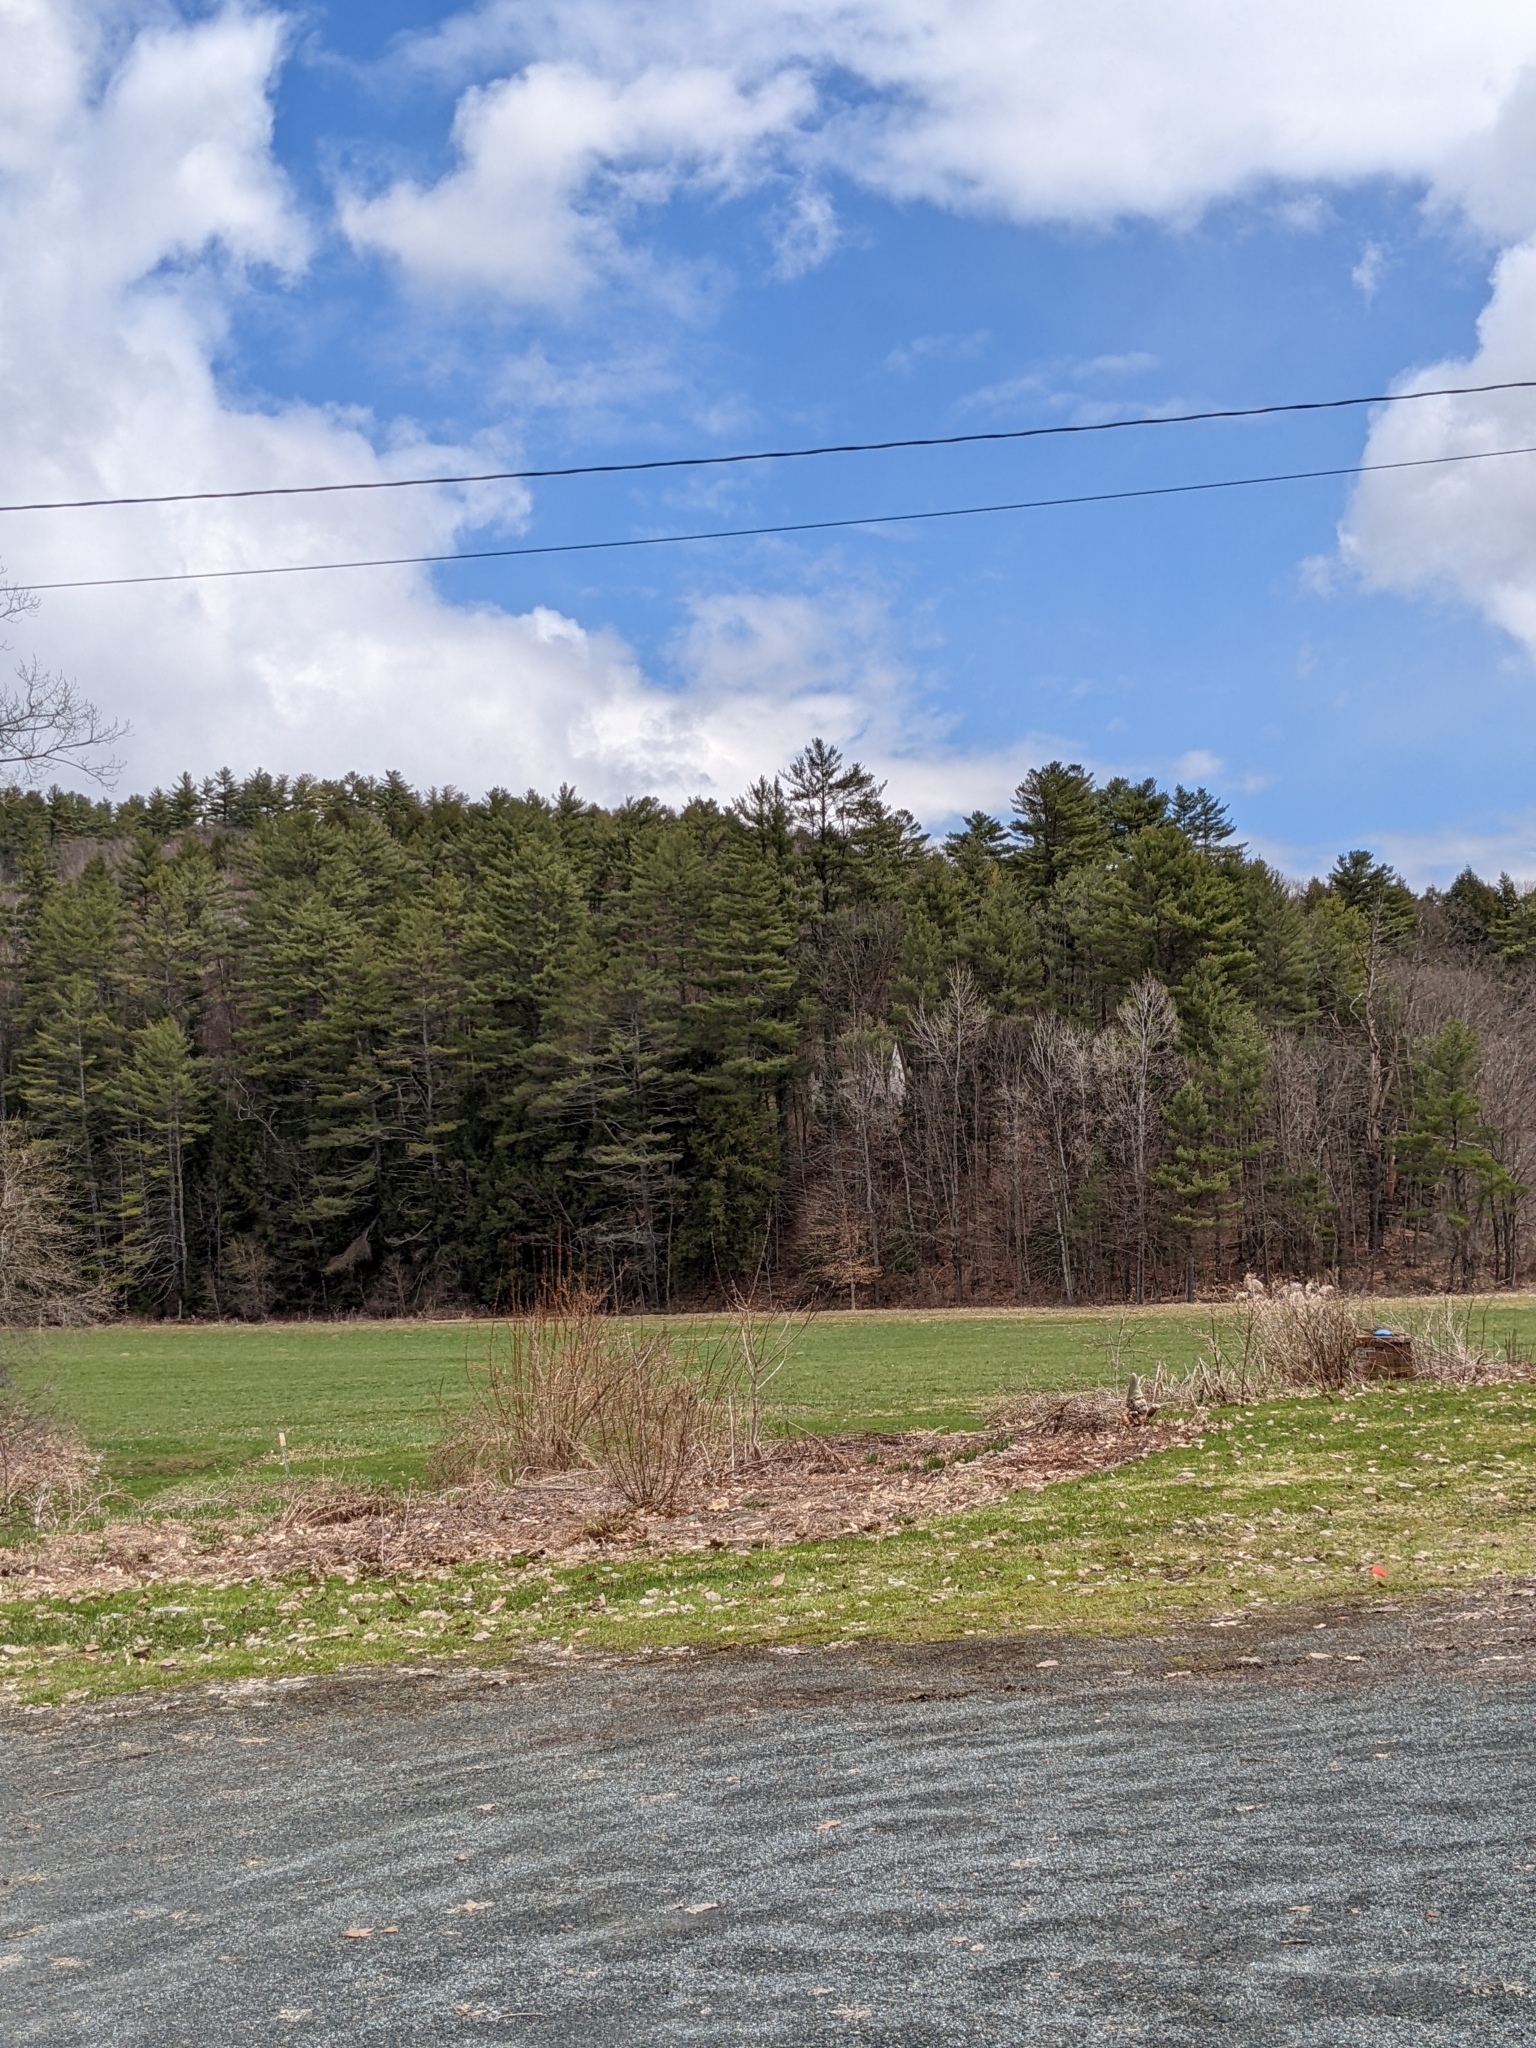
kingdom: Plantae
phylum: Tracheophyta
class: Pinopsida
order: Pinales
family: Pinaceae
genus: Pinus
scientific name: Pinus strobus
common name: Weymouth pine
